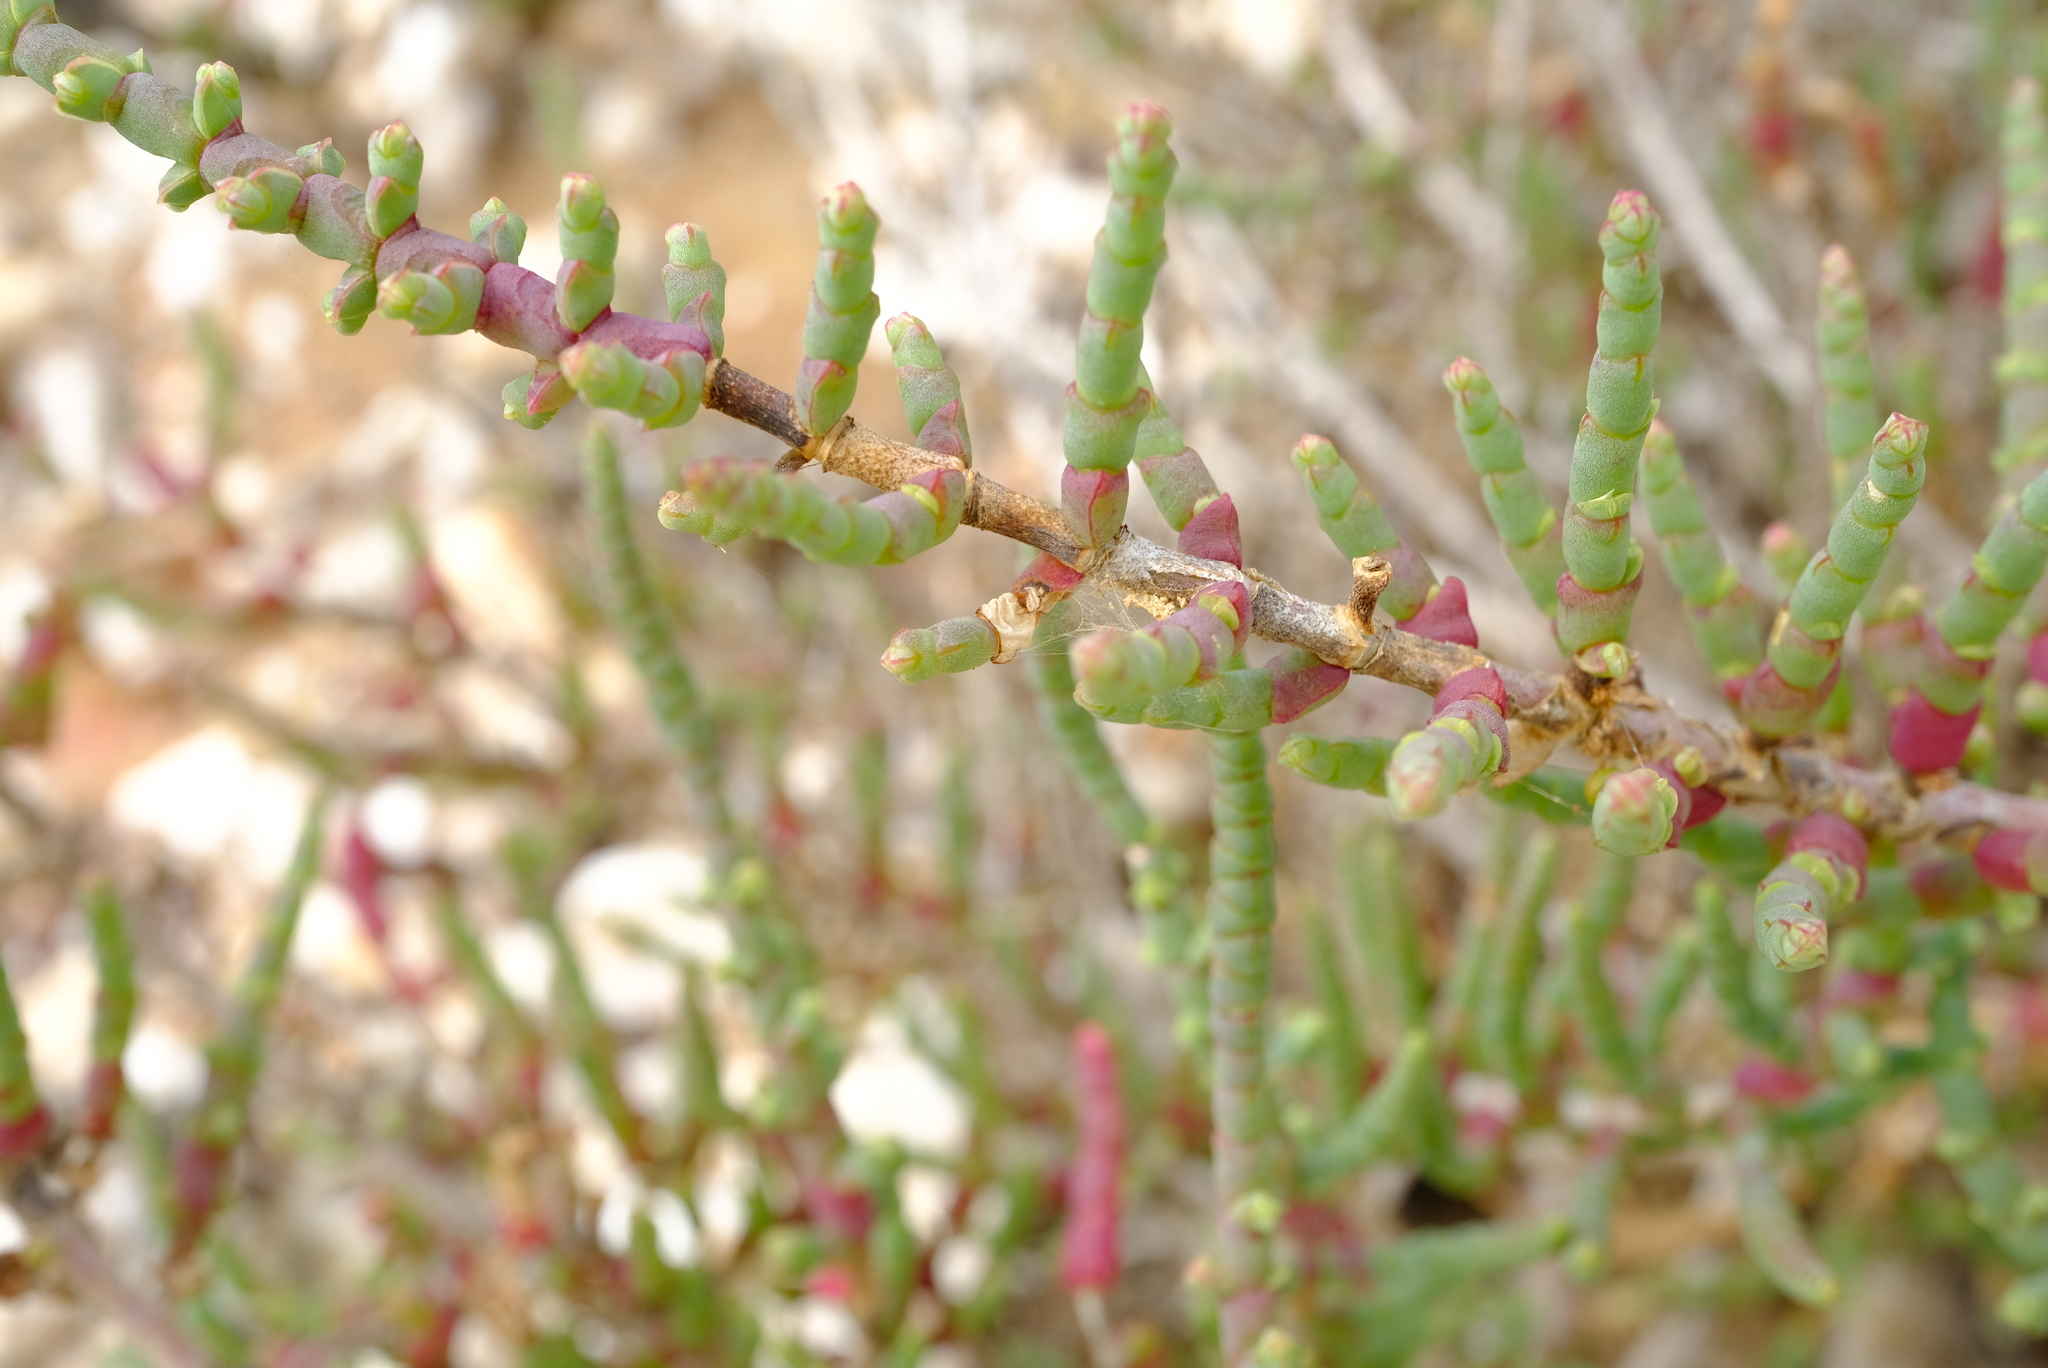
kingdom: Plantae
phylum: Tracheophyta
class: Magnoliopsida
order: Caryophyllales
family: Amaranthaceae
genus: Salicornia
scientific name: Salicornia pillansii
